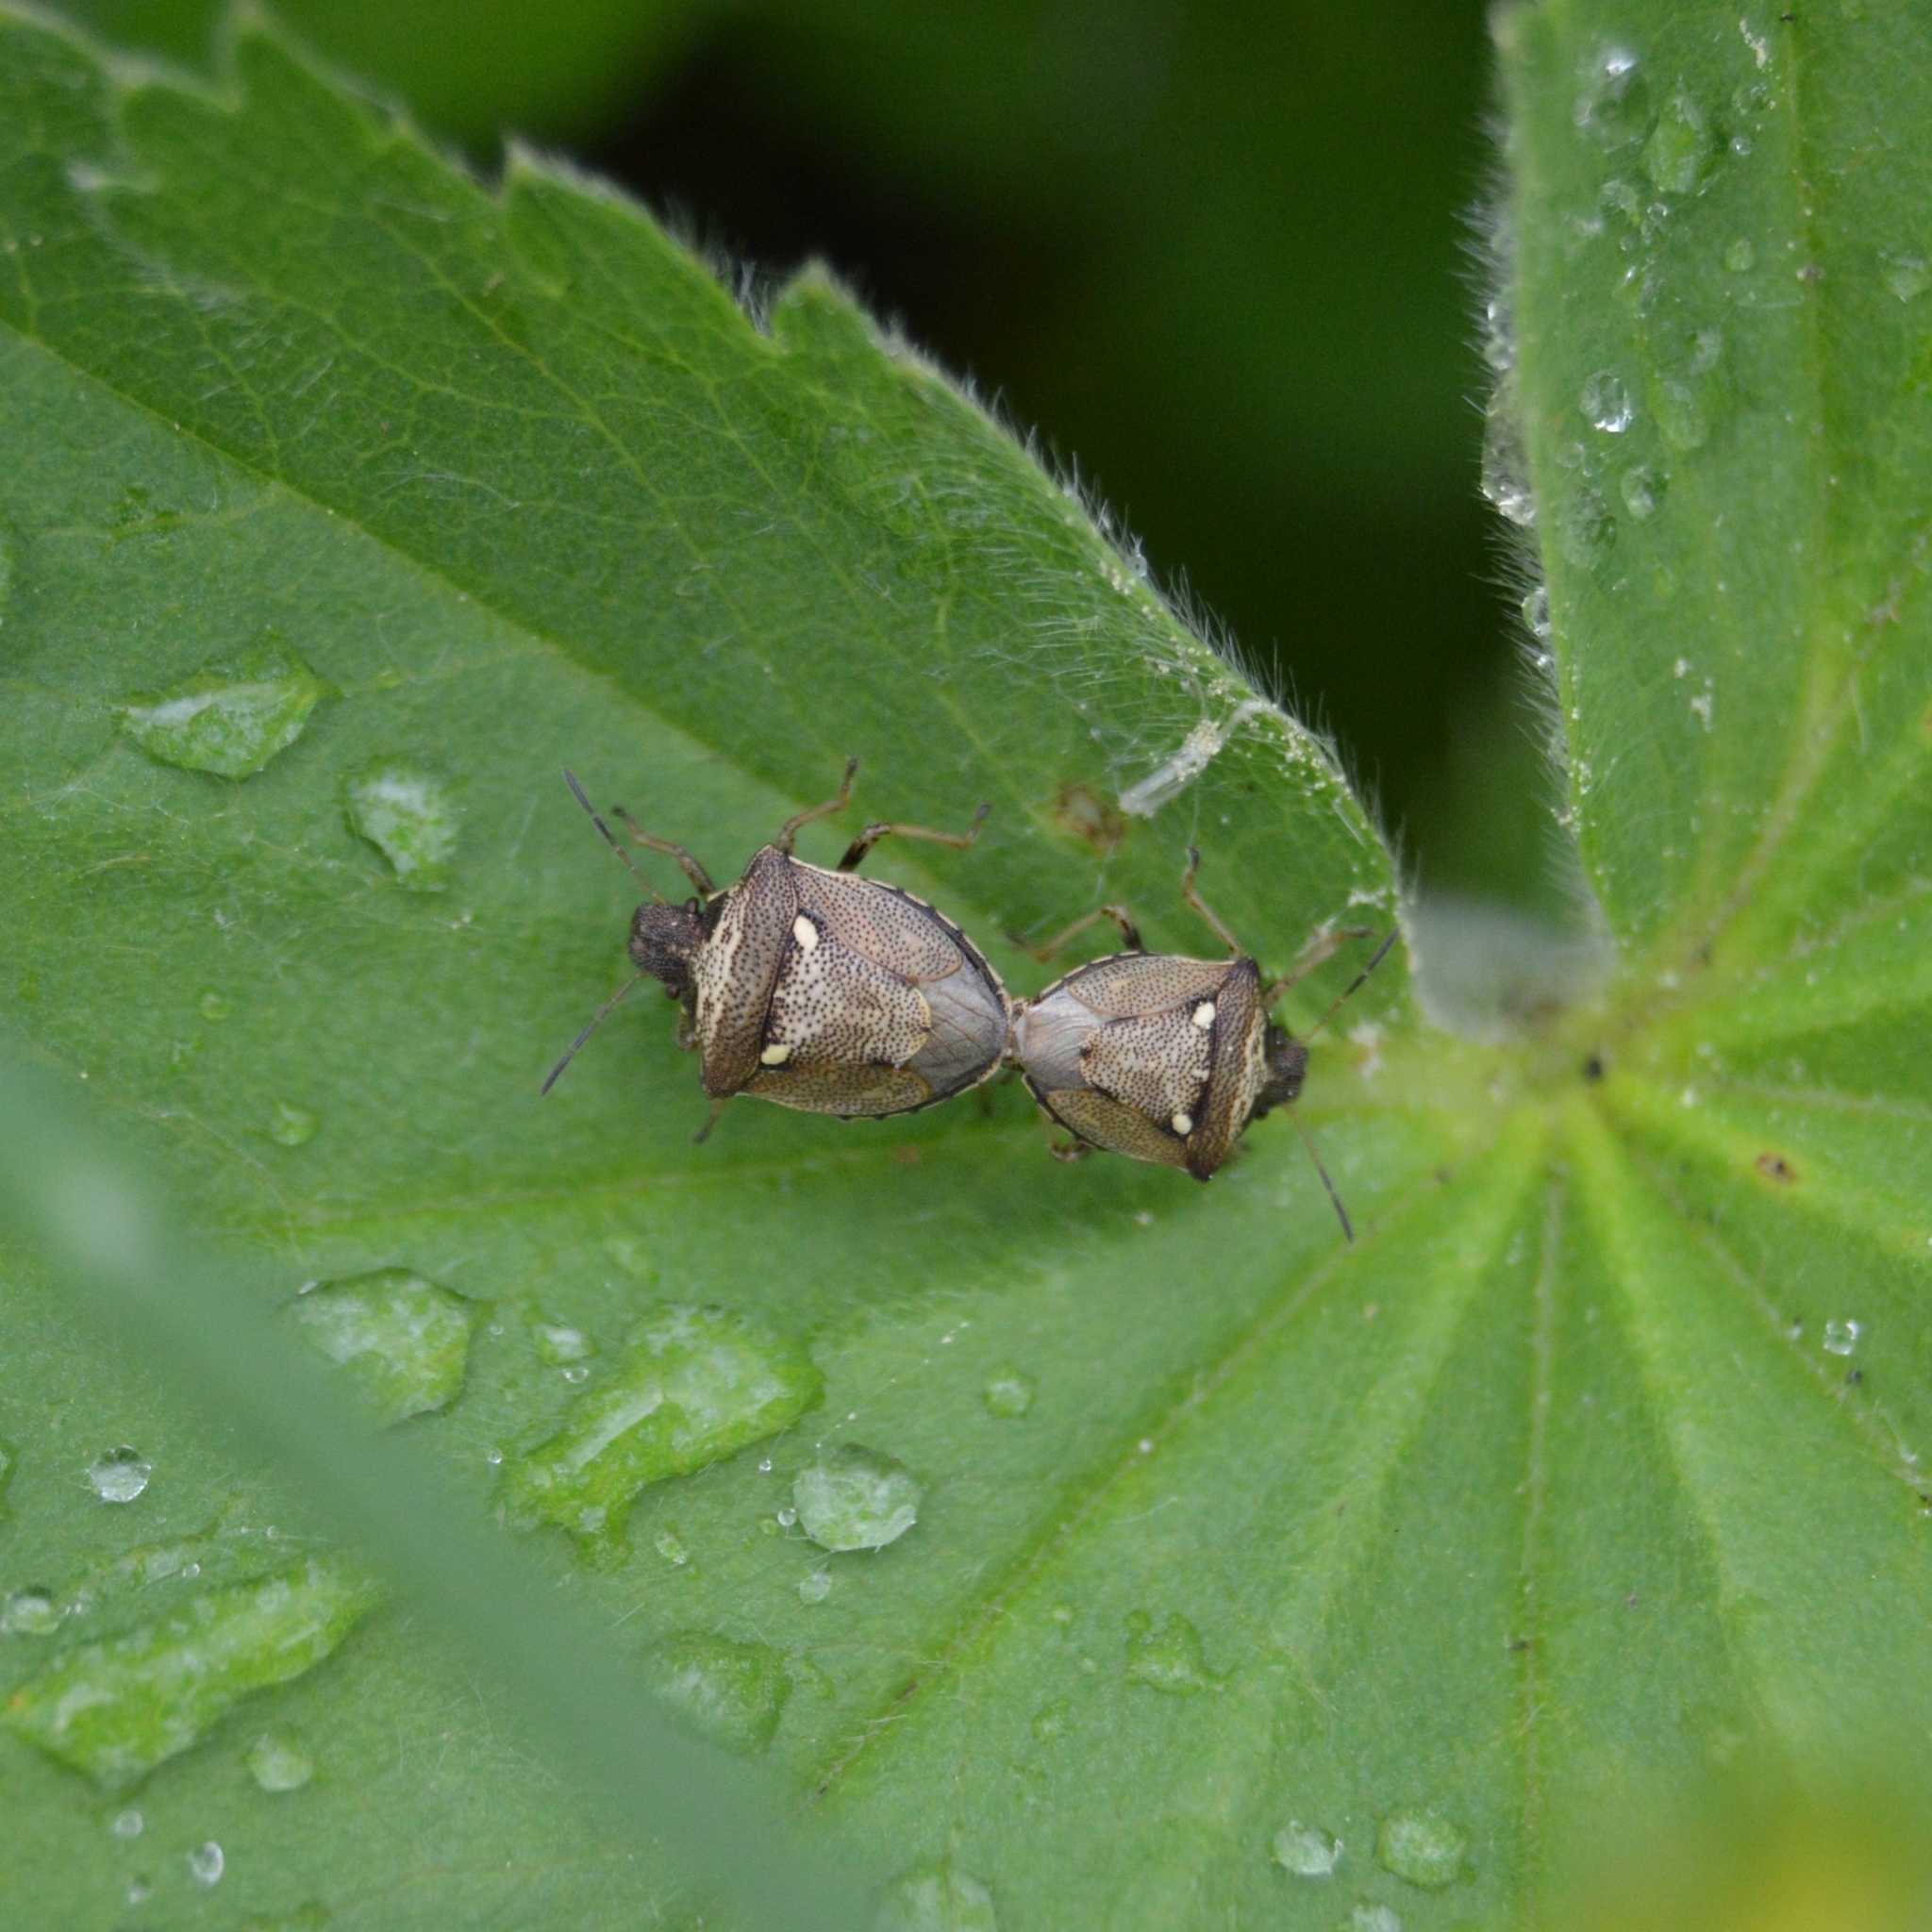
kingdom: Animalia
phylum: Arthropoda
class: Insecta
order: Hemiptera
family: Pentatomidae
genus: Eysarcoris
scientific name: Eysarcoris aeneus
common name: New forest shieldbug
